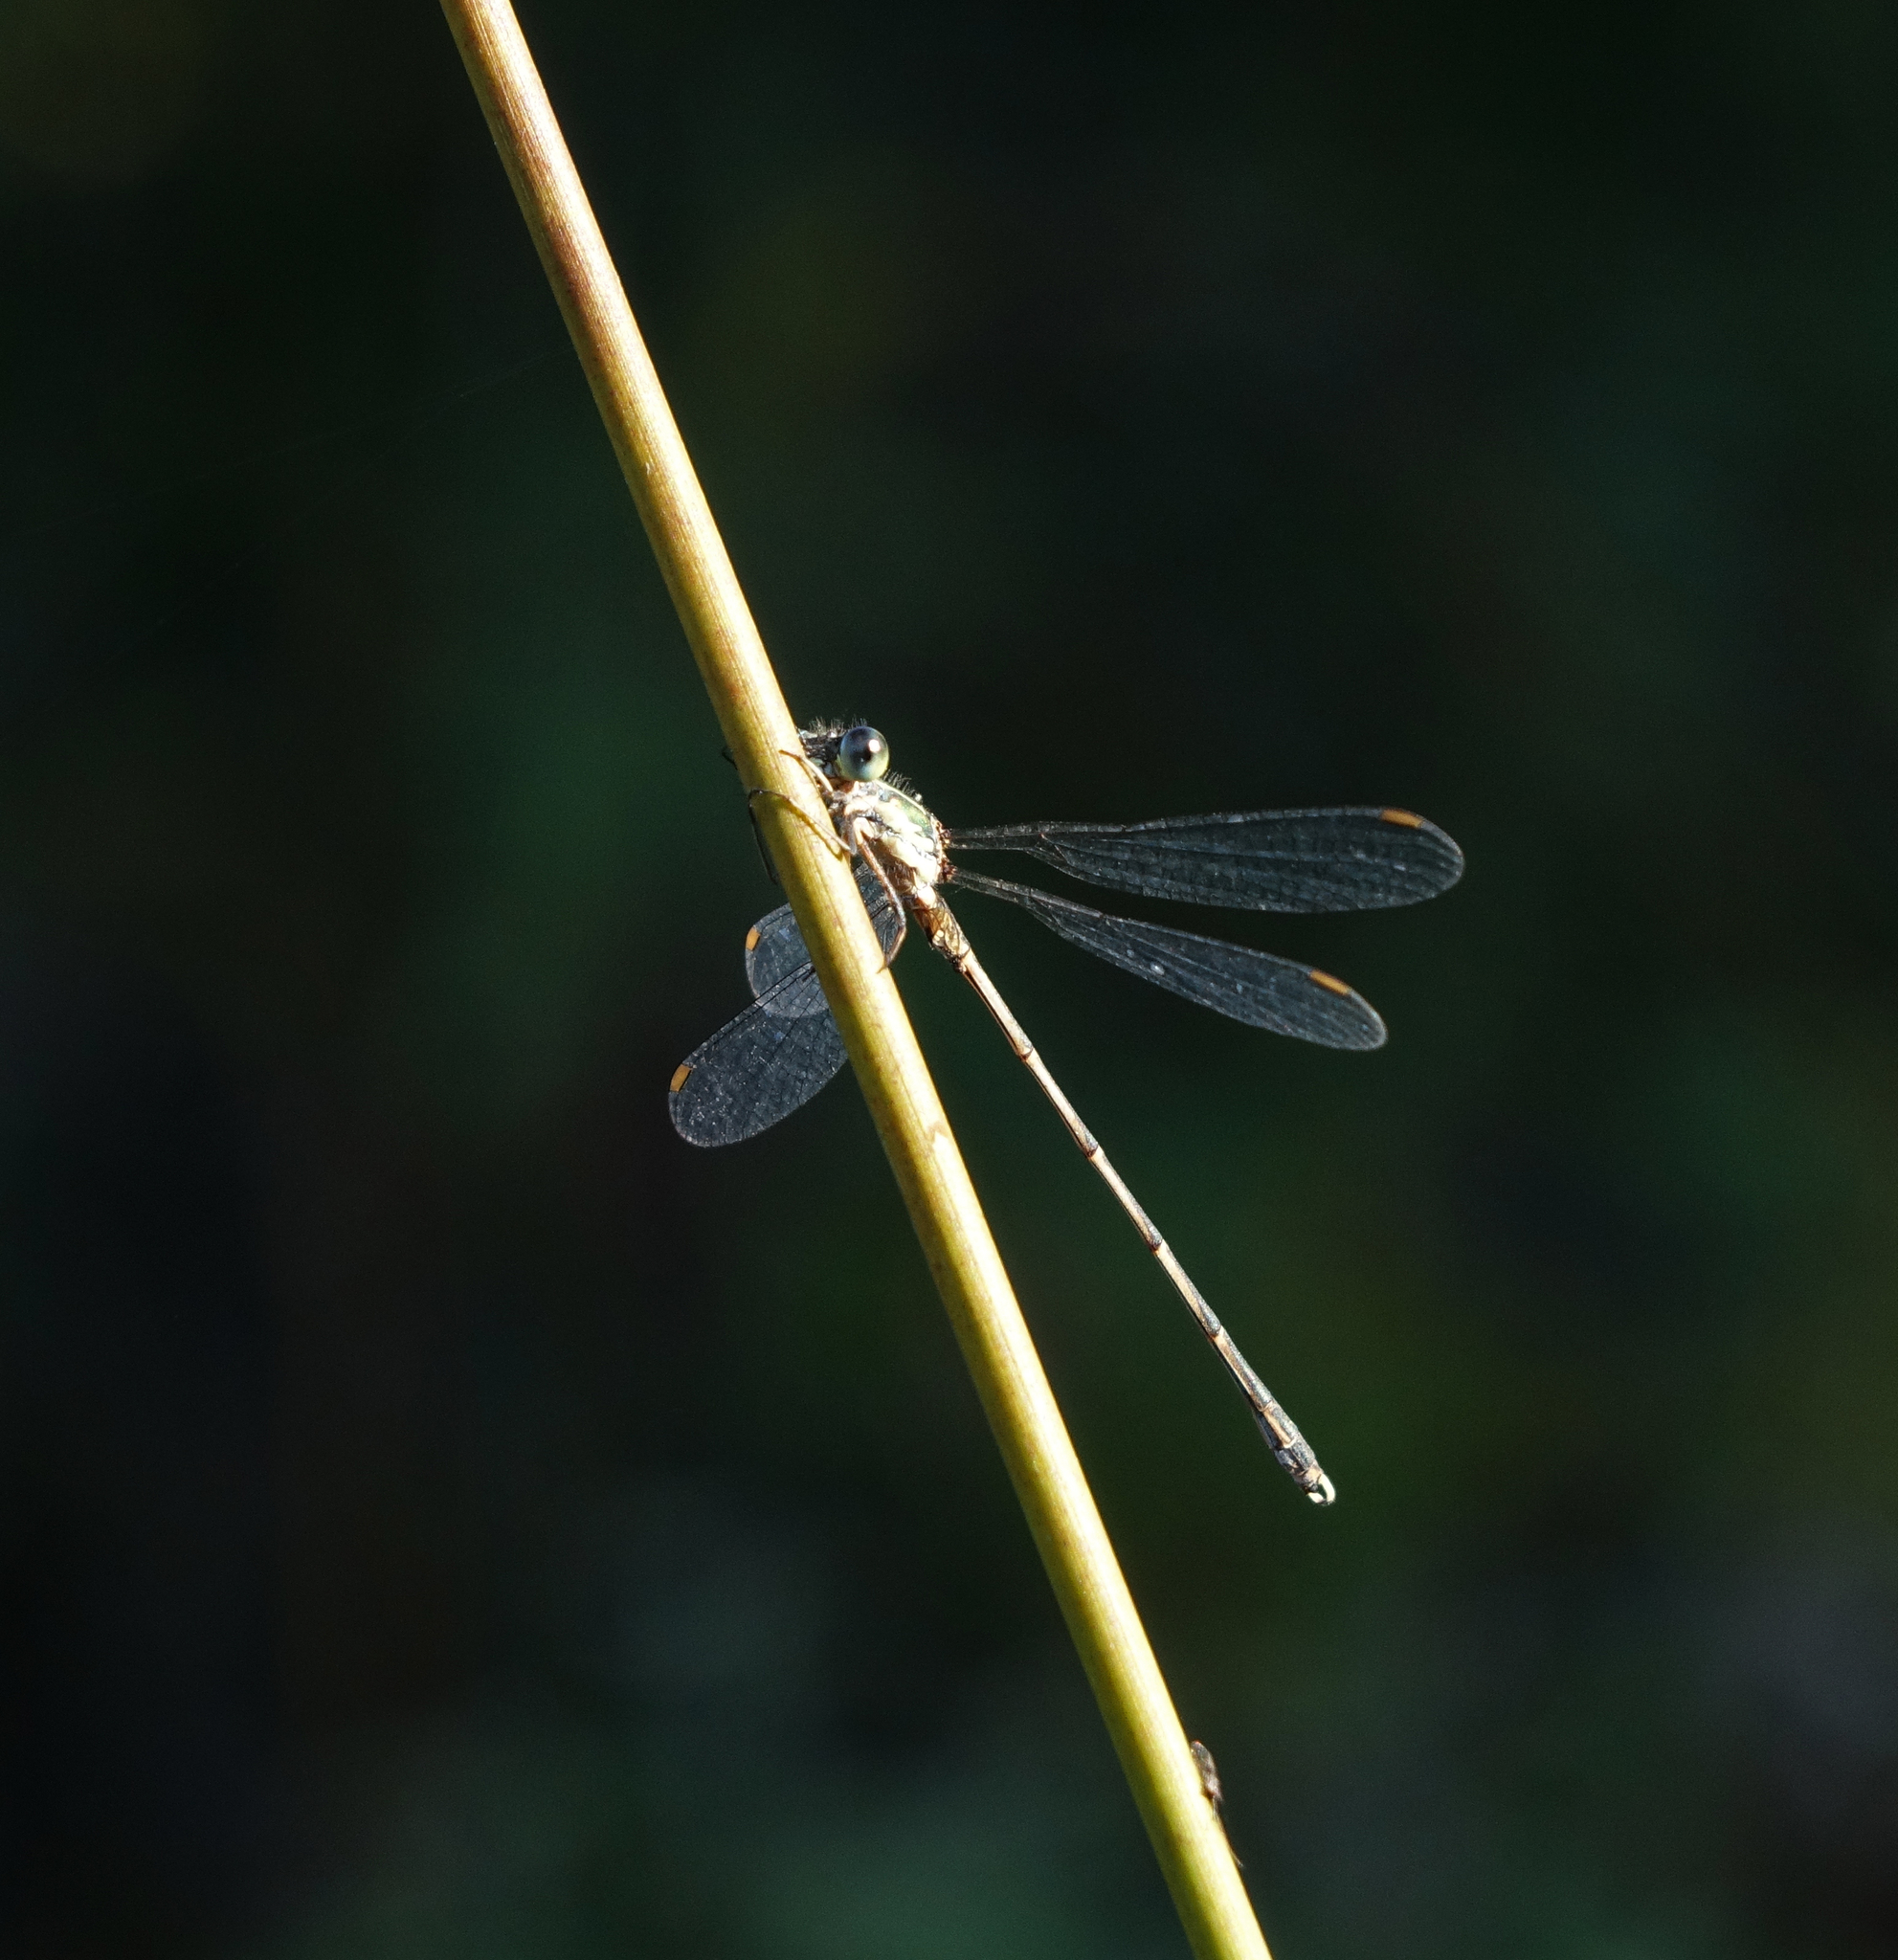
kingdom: Animalia
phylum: Arthropoda
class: Insecta
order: Odonata
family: Lestidae
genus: Chalcolestes
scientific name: Chalcolestes parvidens
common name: Eastern willow spreadwing
